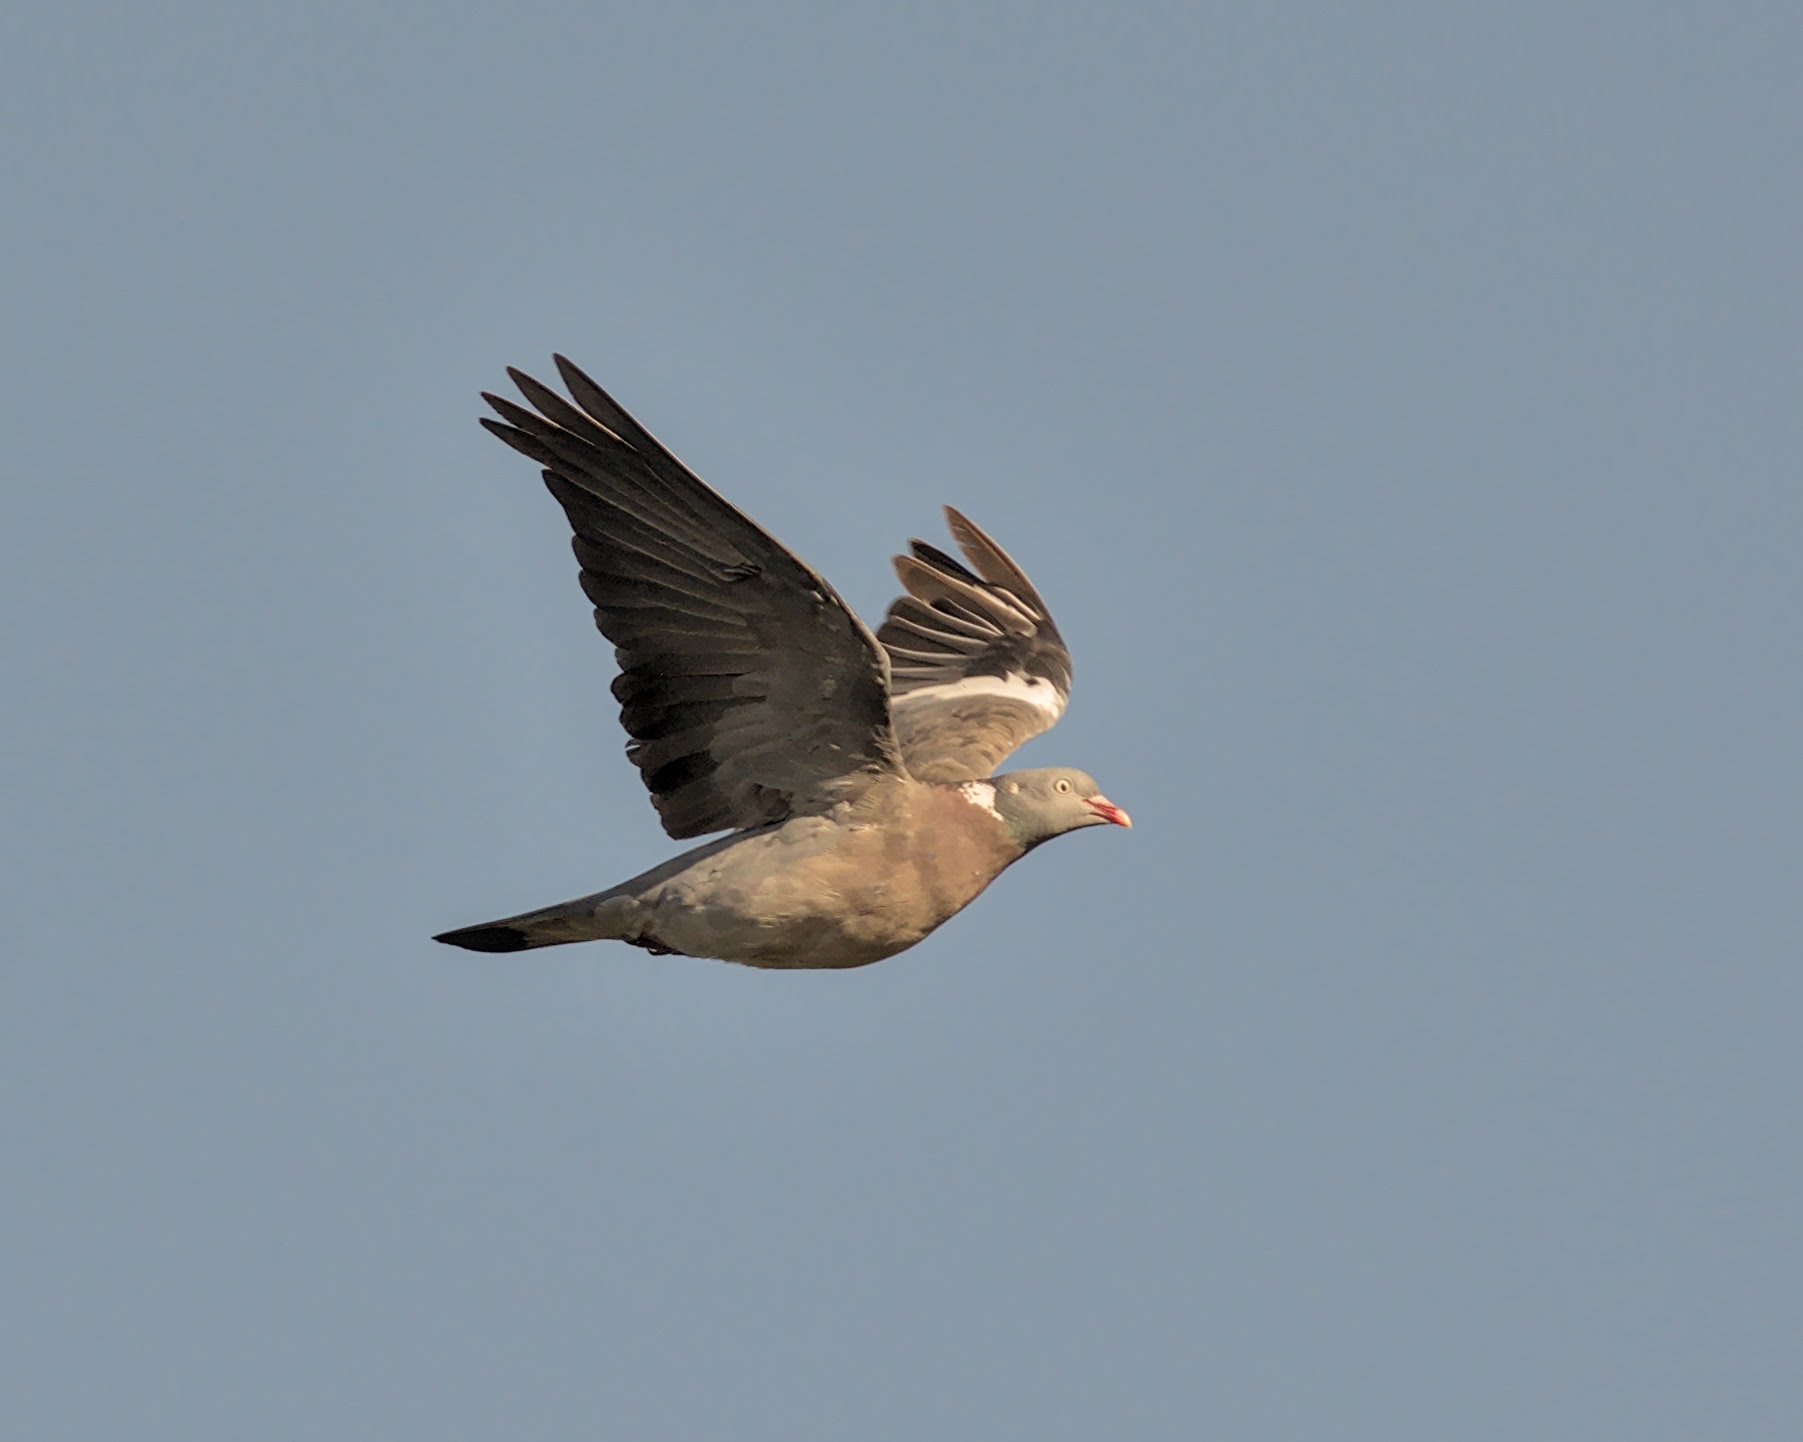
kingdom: Animalia
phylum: Chordata
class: Aves
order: Columbiformes
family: Columbidae
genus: Columba
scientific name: Columba palumbus
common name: Common wood pigeon
